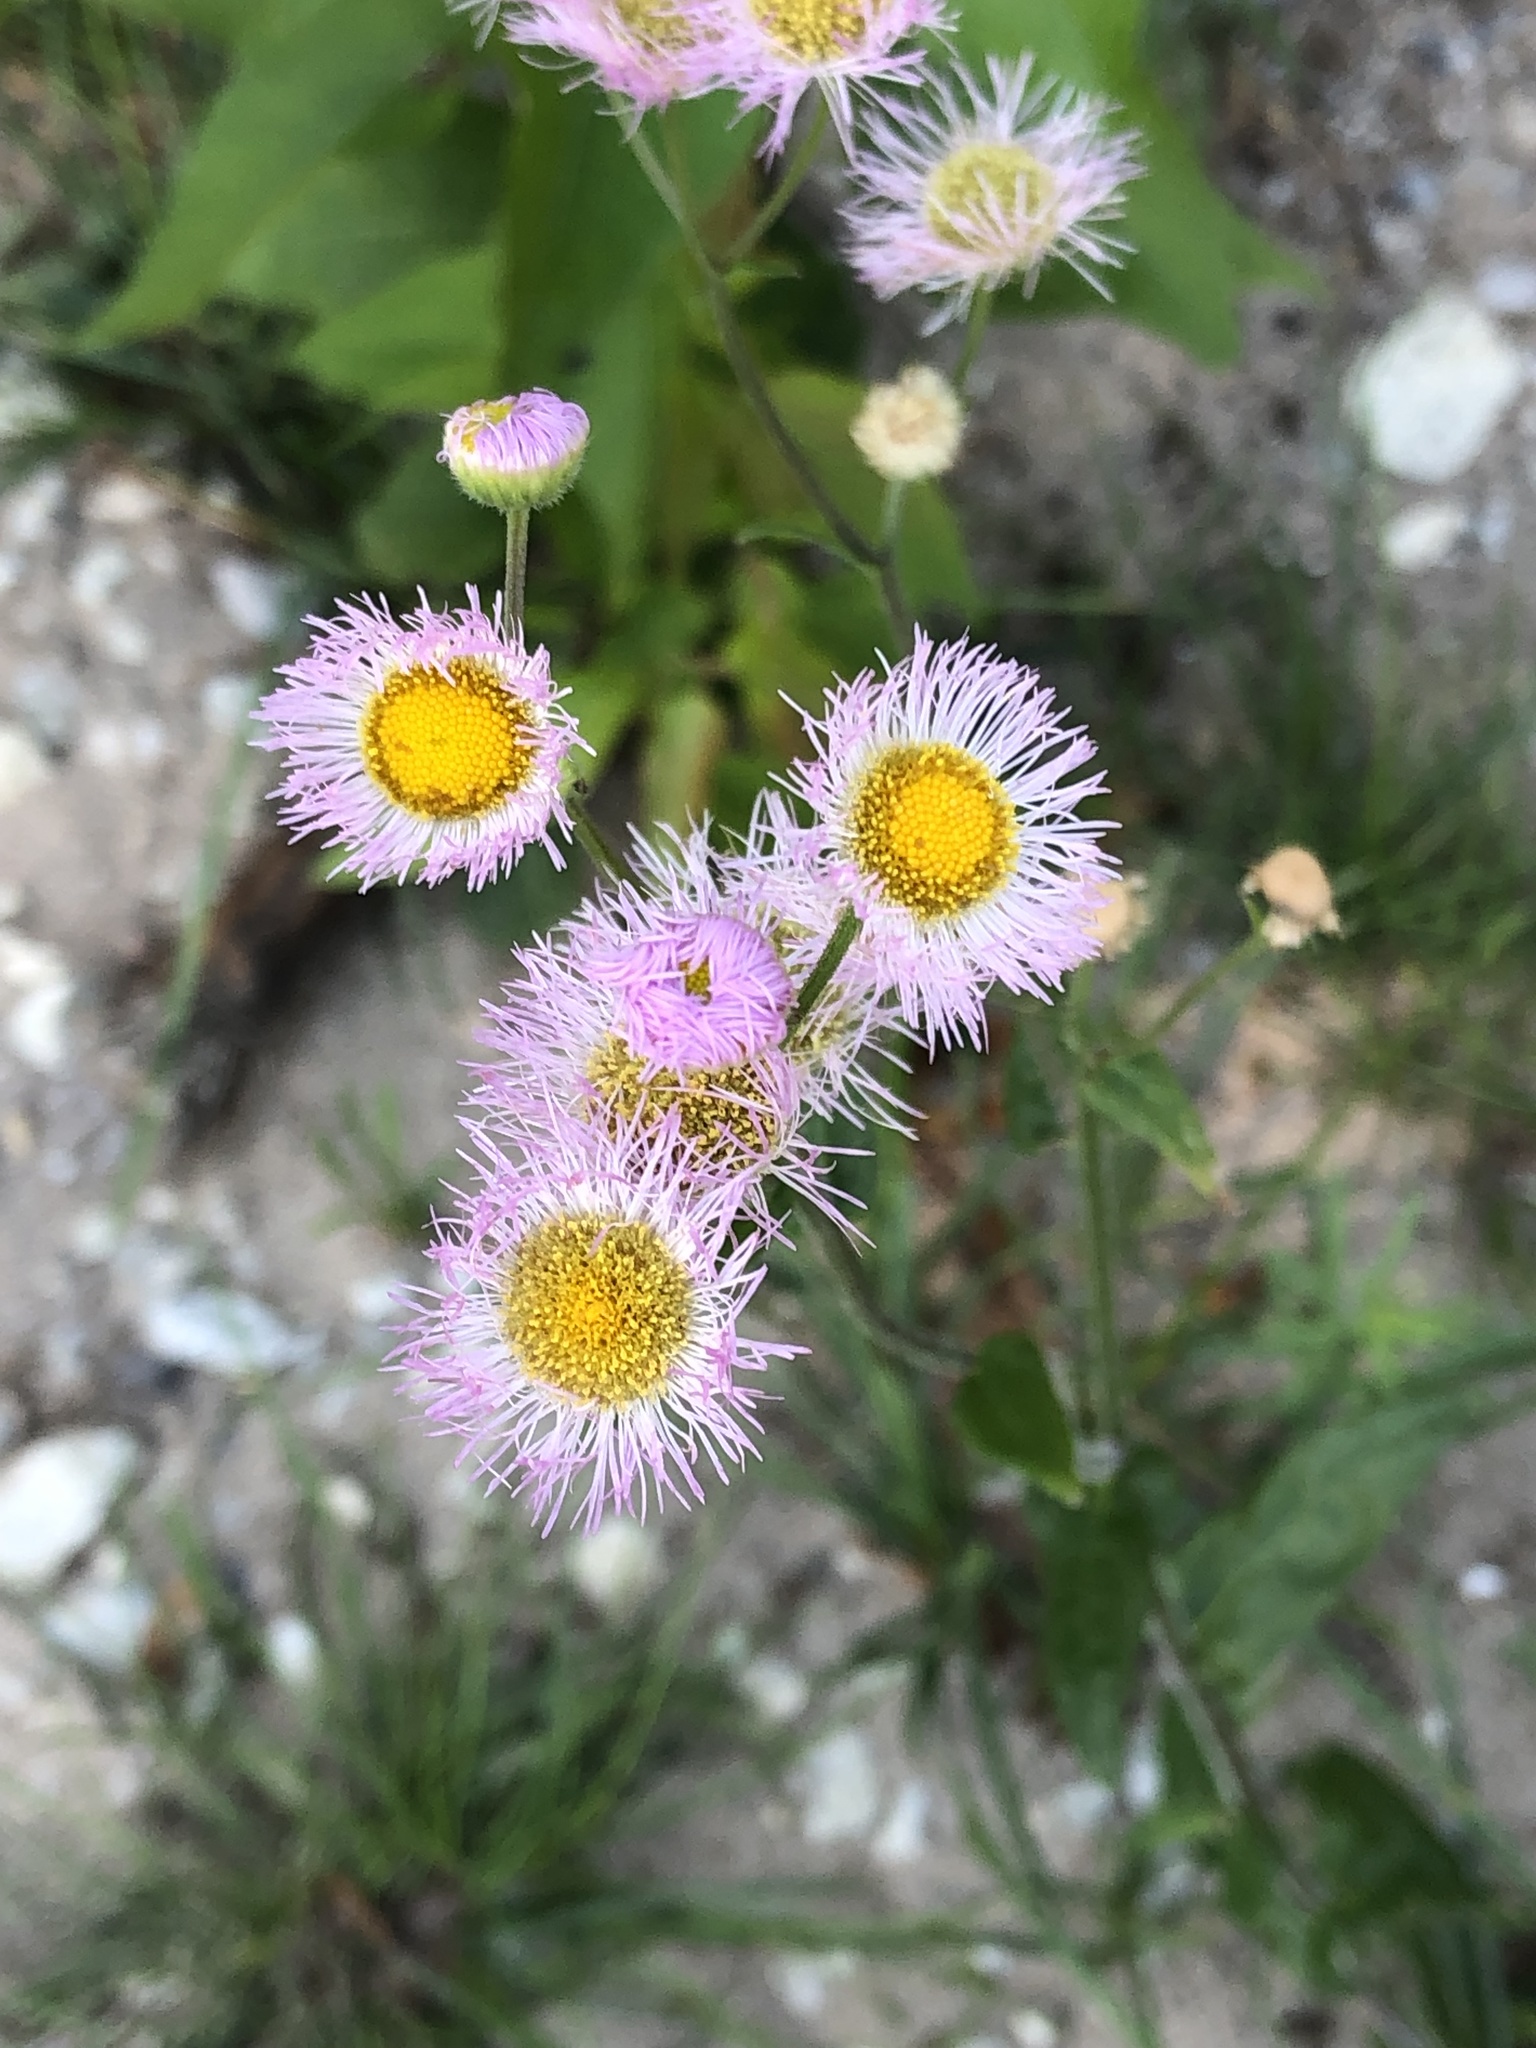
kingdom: Plantae
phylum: Tracheophyta
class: Magnoliopsida
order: Asterales
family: Asteraceae
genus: Erigeron
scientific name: Erigeron philadelphicus
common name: Robin's-plantain
